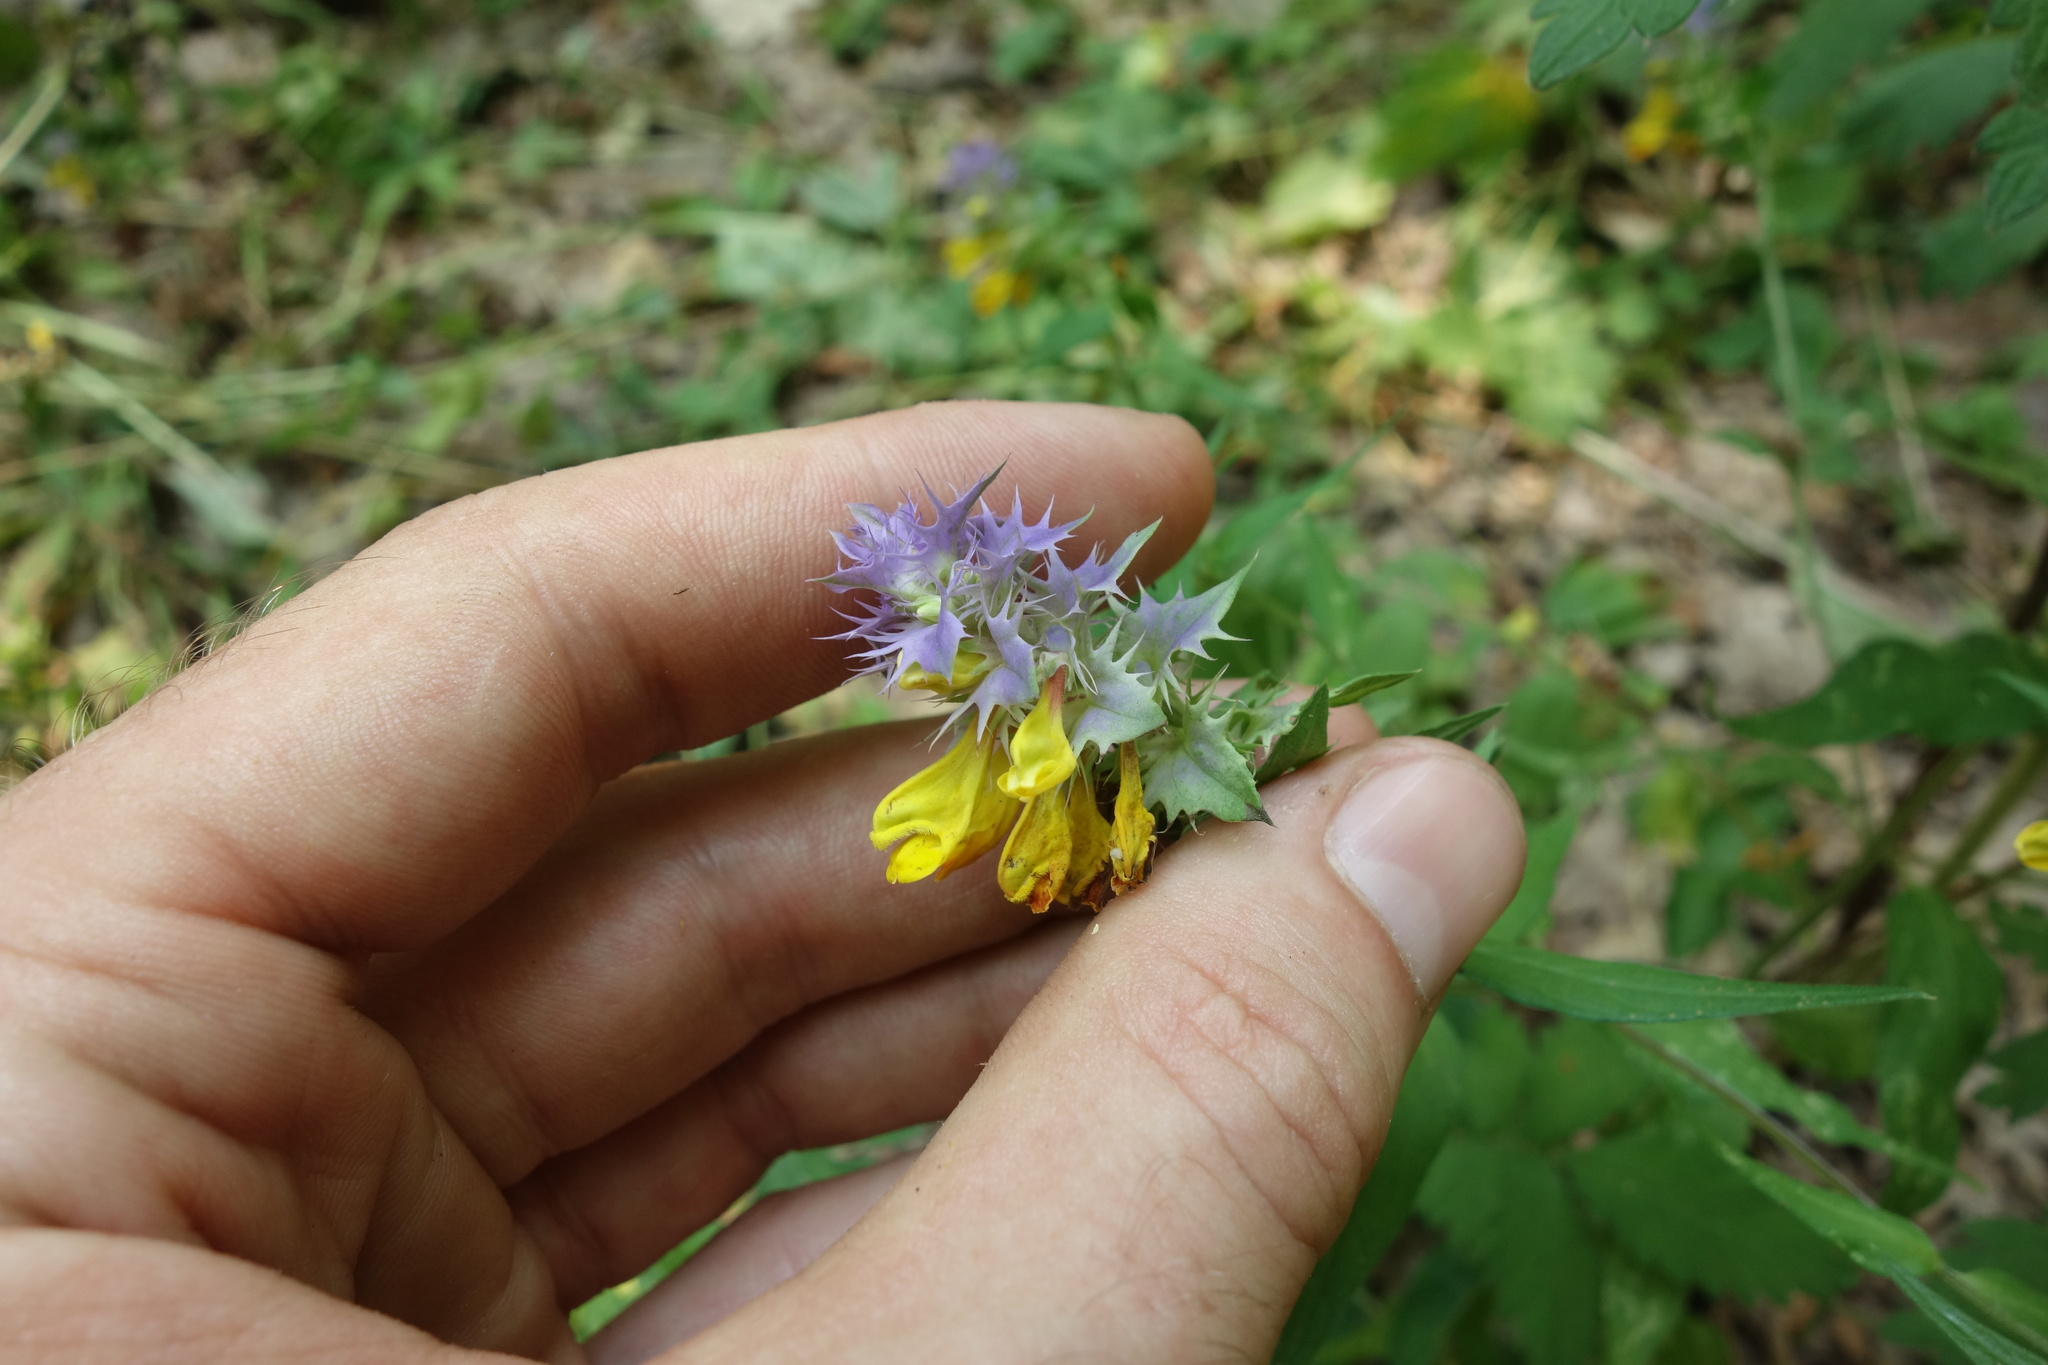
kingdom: Plantae
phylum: Tracheophyta
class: Magnoliopsida
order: Lamiales
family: Orobanchaceae
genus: Melampyrum
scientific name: Melampyrum nemorosum
